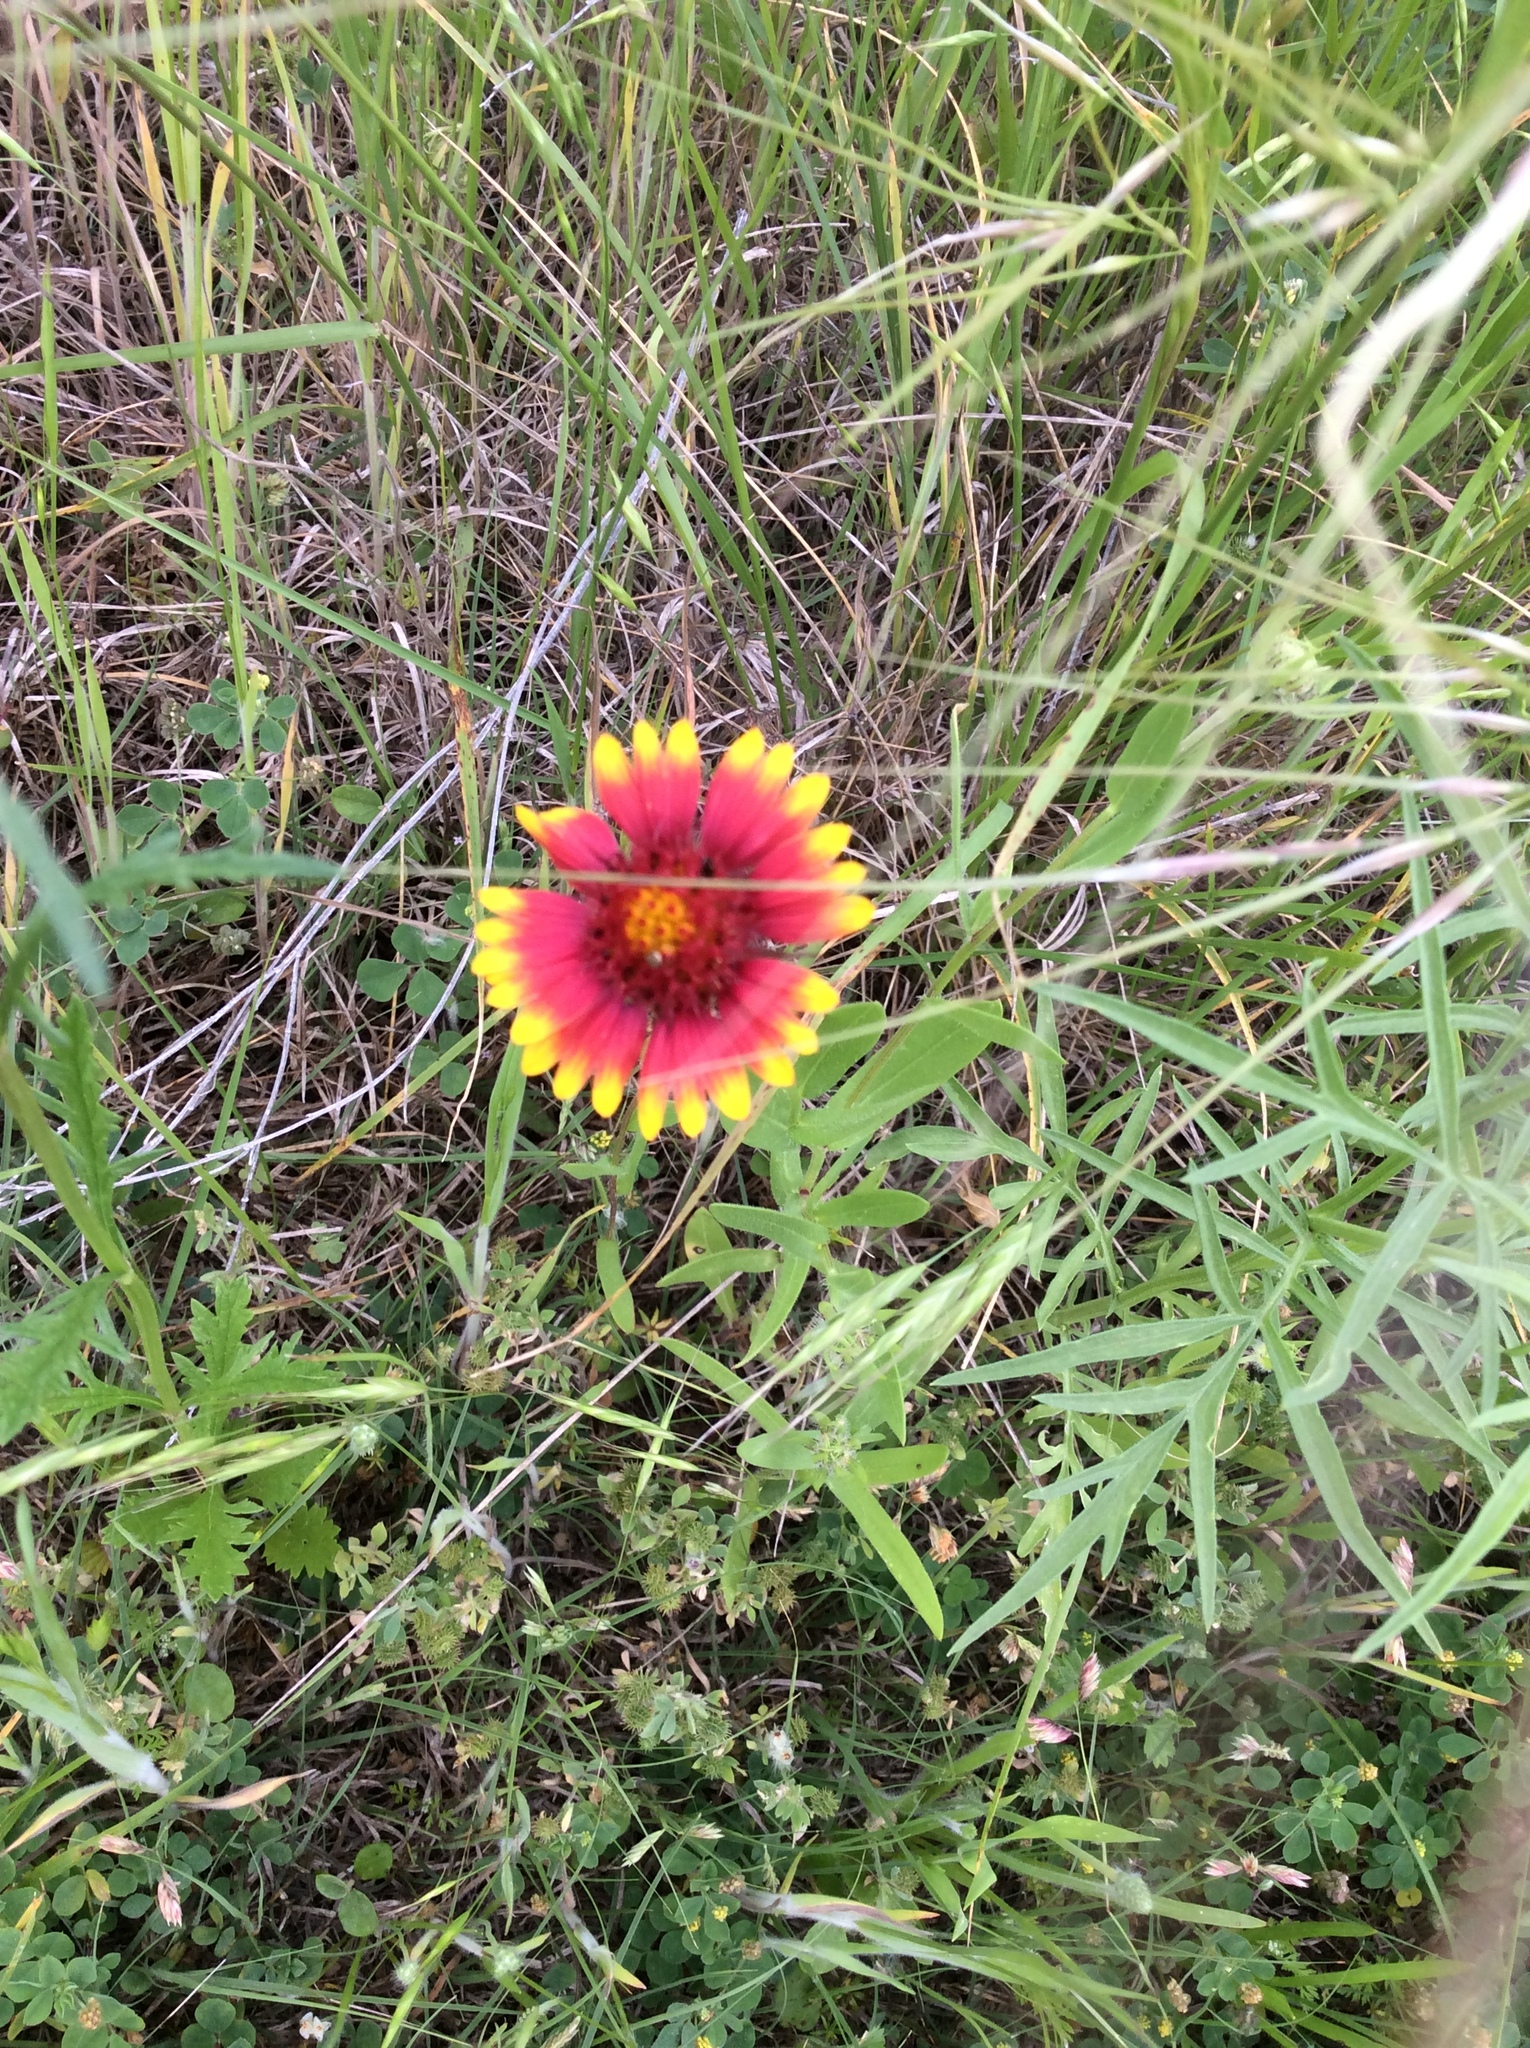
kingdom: Plantae
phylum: Tracheophyta
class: Magnoliopsida
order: Asterales
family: Asteraceae
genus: Gaillardia
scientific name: Gaillardia pulchella
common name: Firewheel
